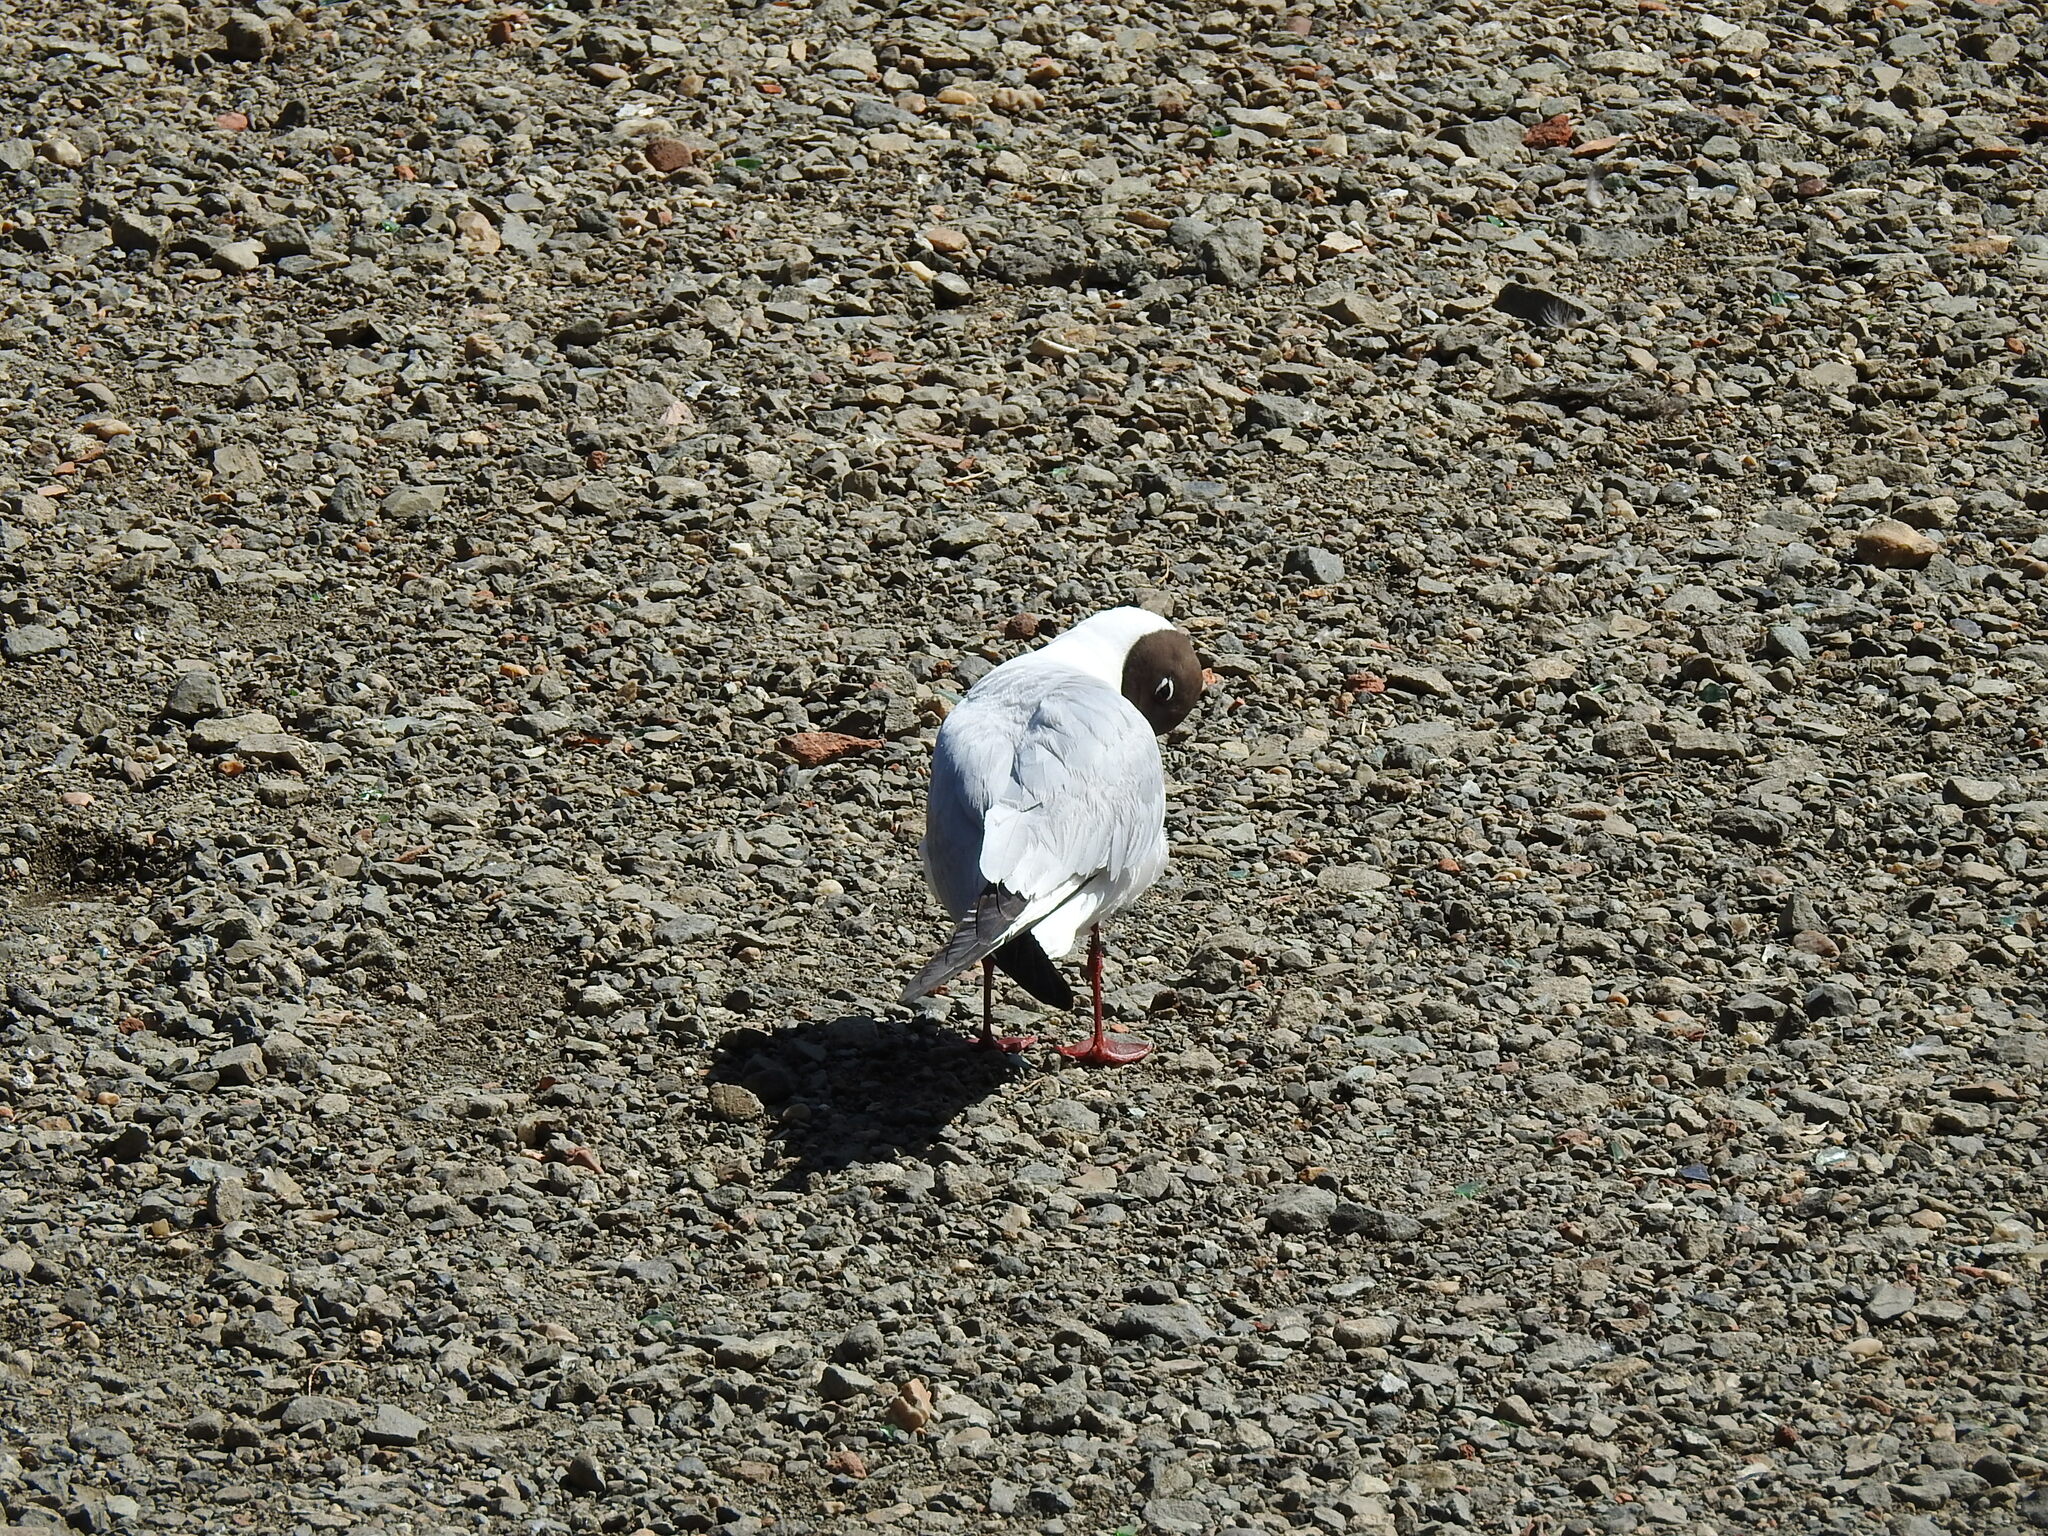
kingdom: Animalia
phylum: Chordata
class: Aves
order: Charadriiformes
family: Laridae
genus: Chroicocephalus
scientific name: Chroicocephalus ridibundus
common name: Black-headed gull
